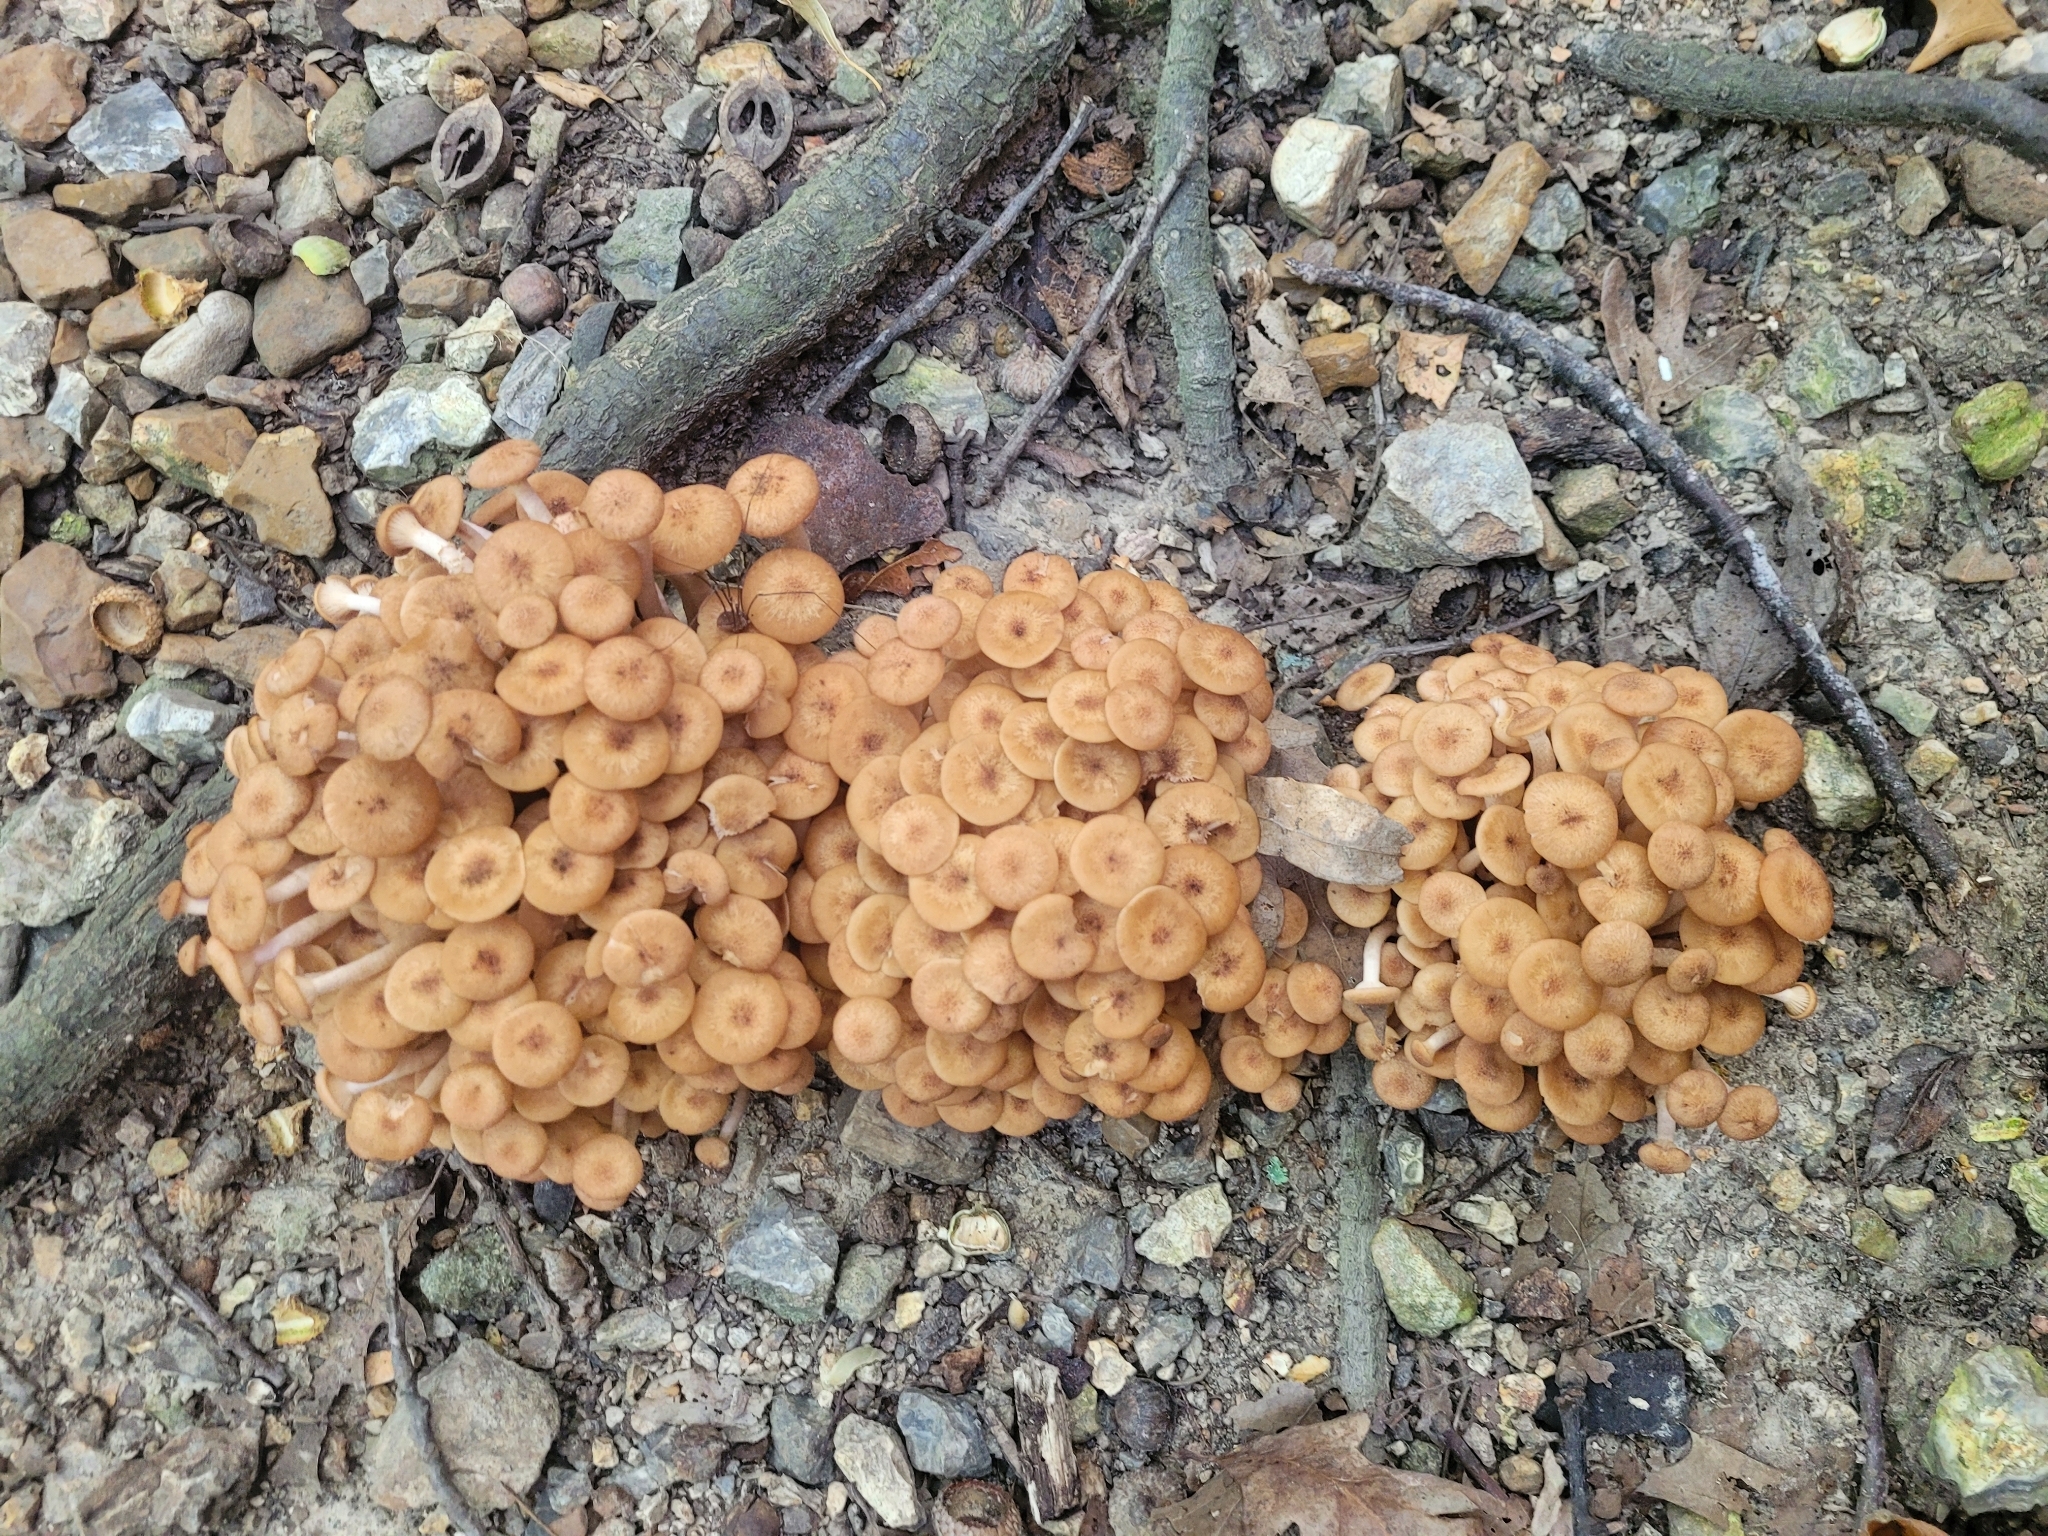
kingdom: Fungi
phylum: Basidiomycota
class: Agaricomycetes
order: Agaricales
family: Physalacriaceae
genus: Desarmillaria
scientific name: Desarmillaria caespitosa
